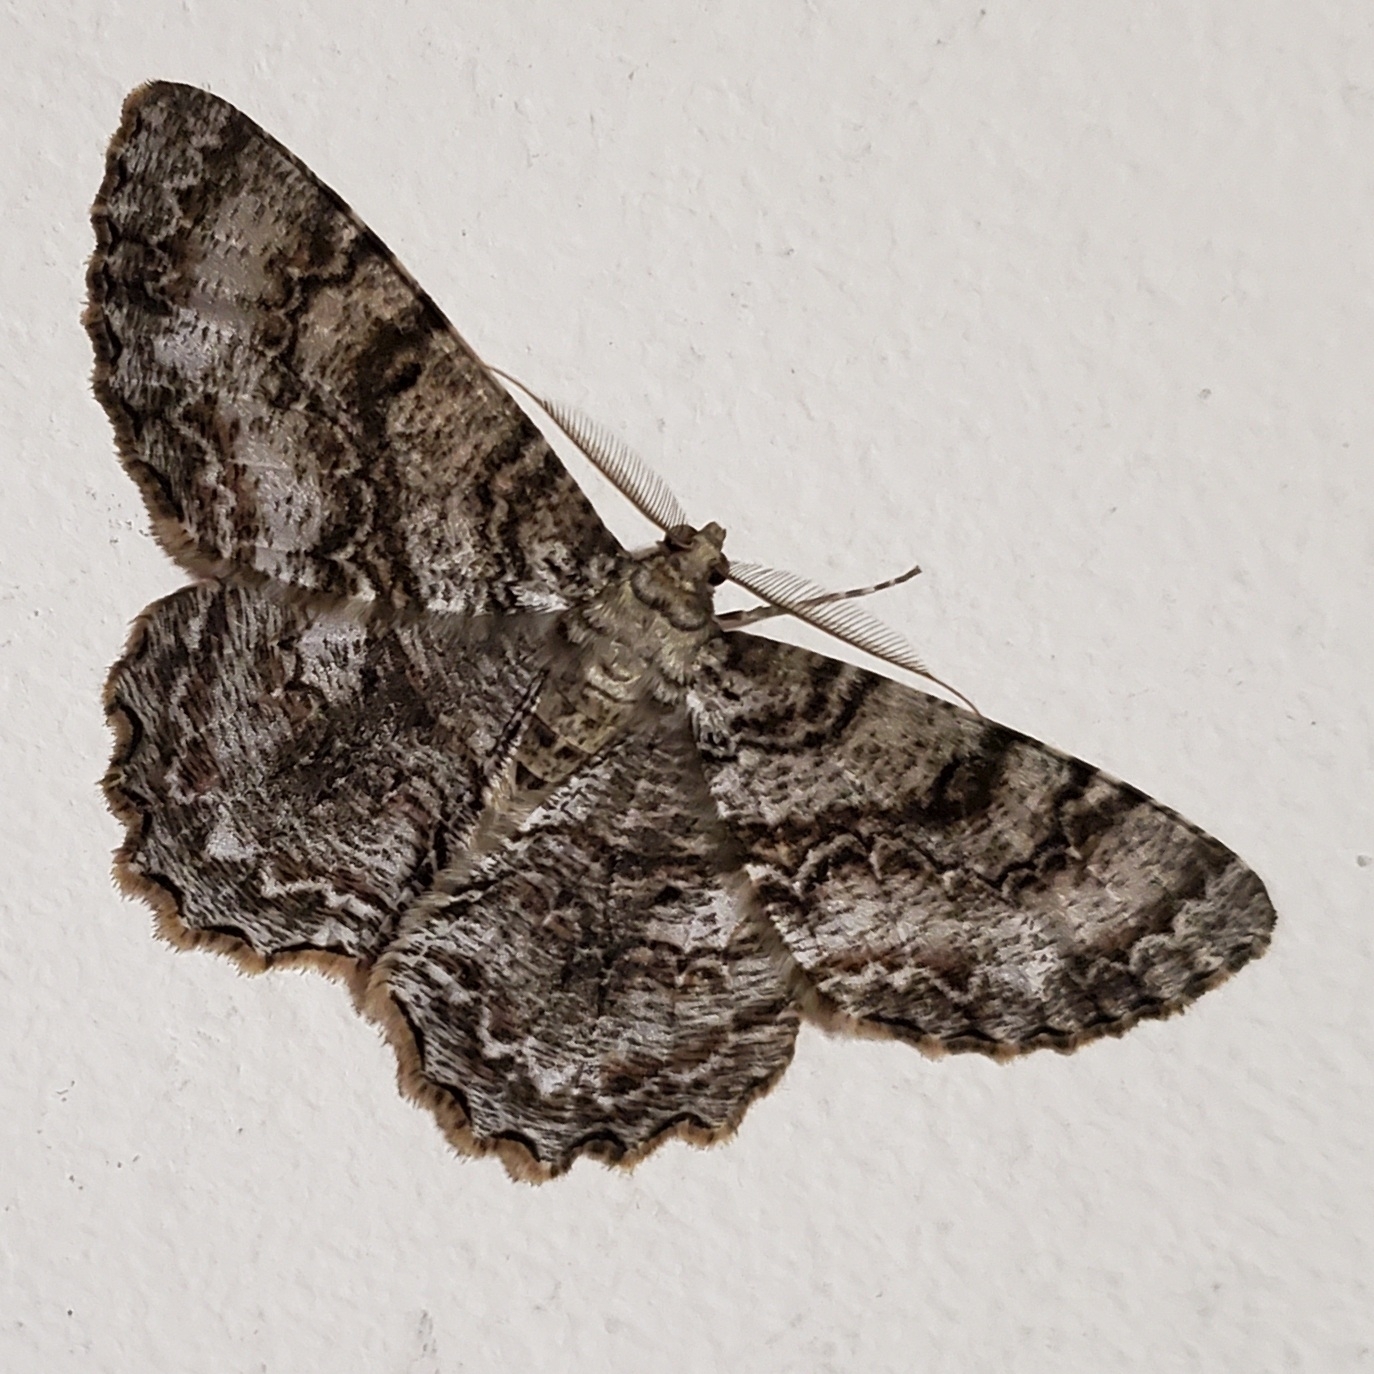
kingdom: Animalia
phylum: Arthropoda
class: Insecta
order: Lepidoptera
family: Geometridae
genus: Epimecis
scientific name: Epimecis hortaria
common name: Tulip-tree beauty
